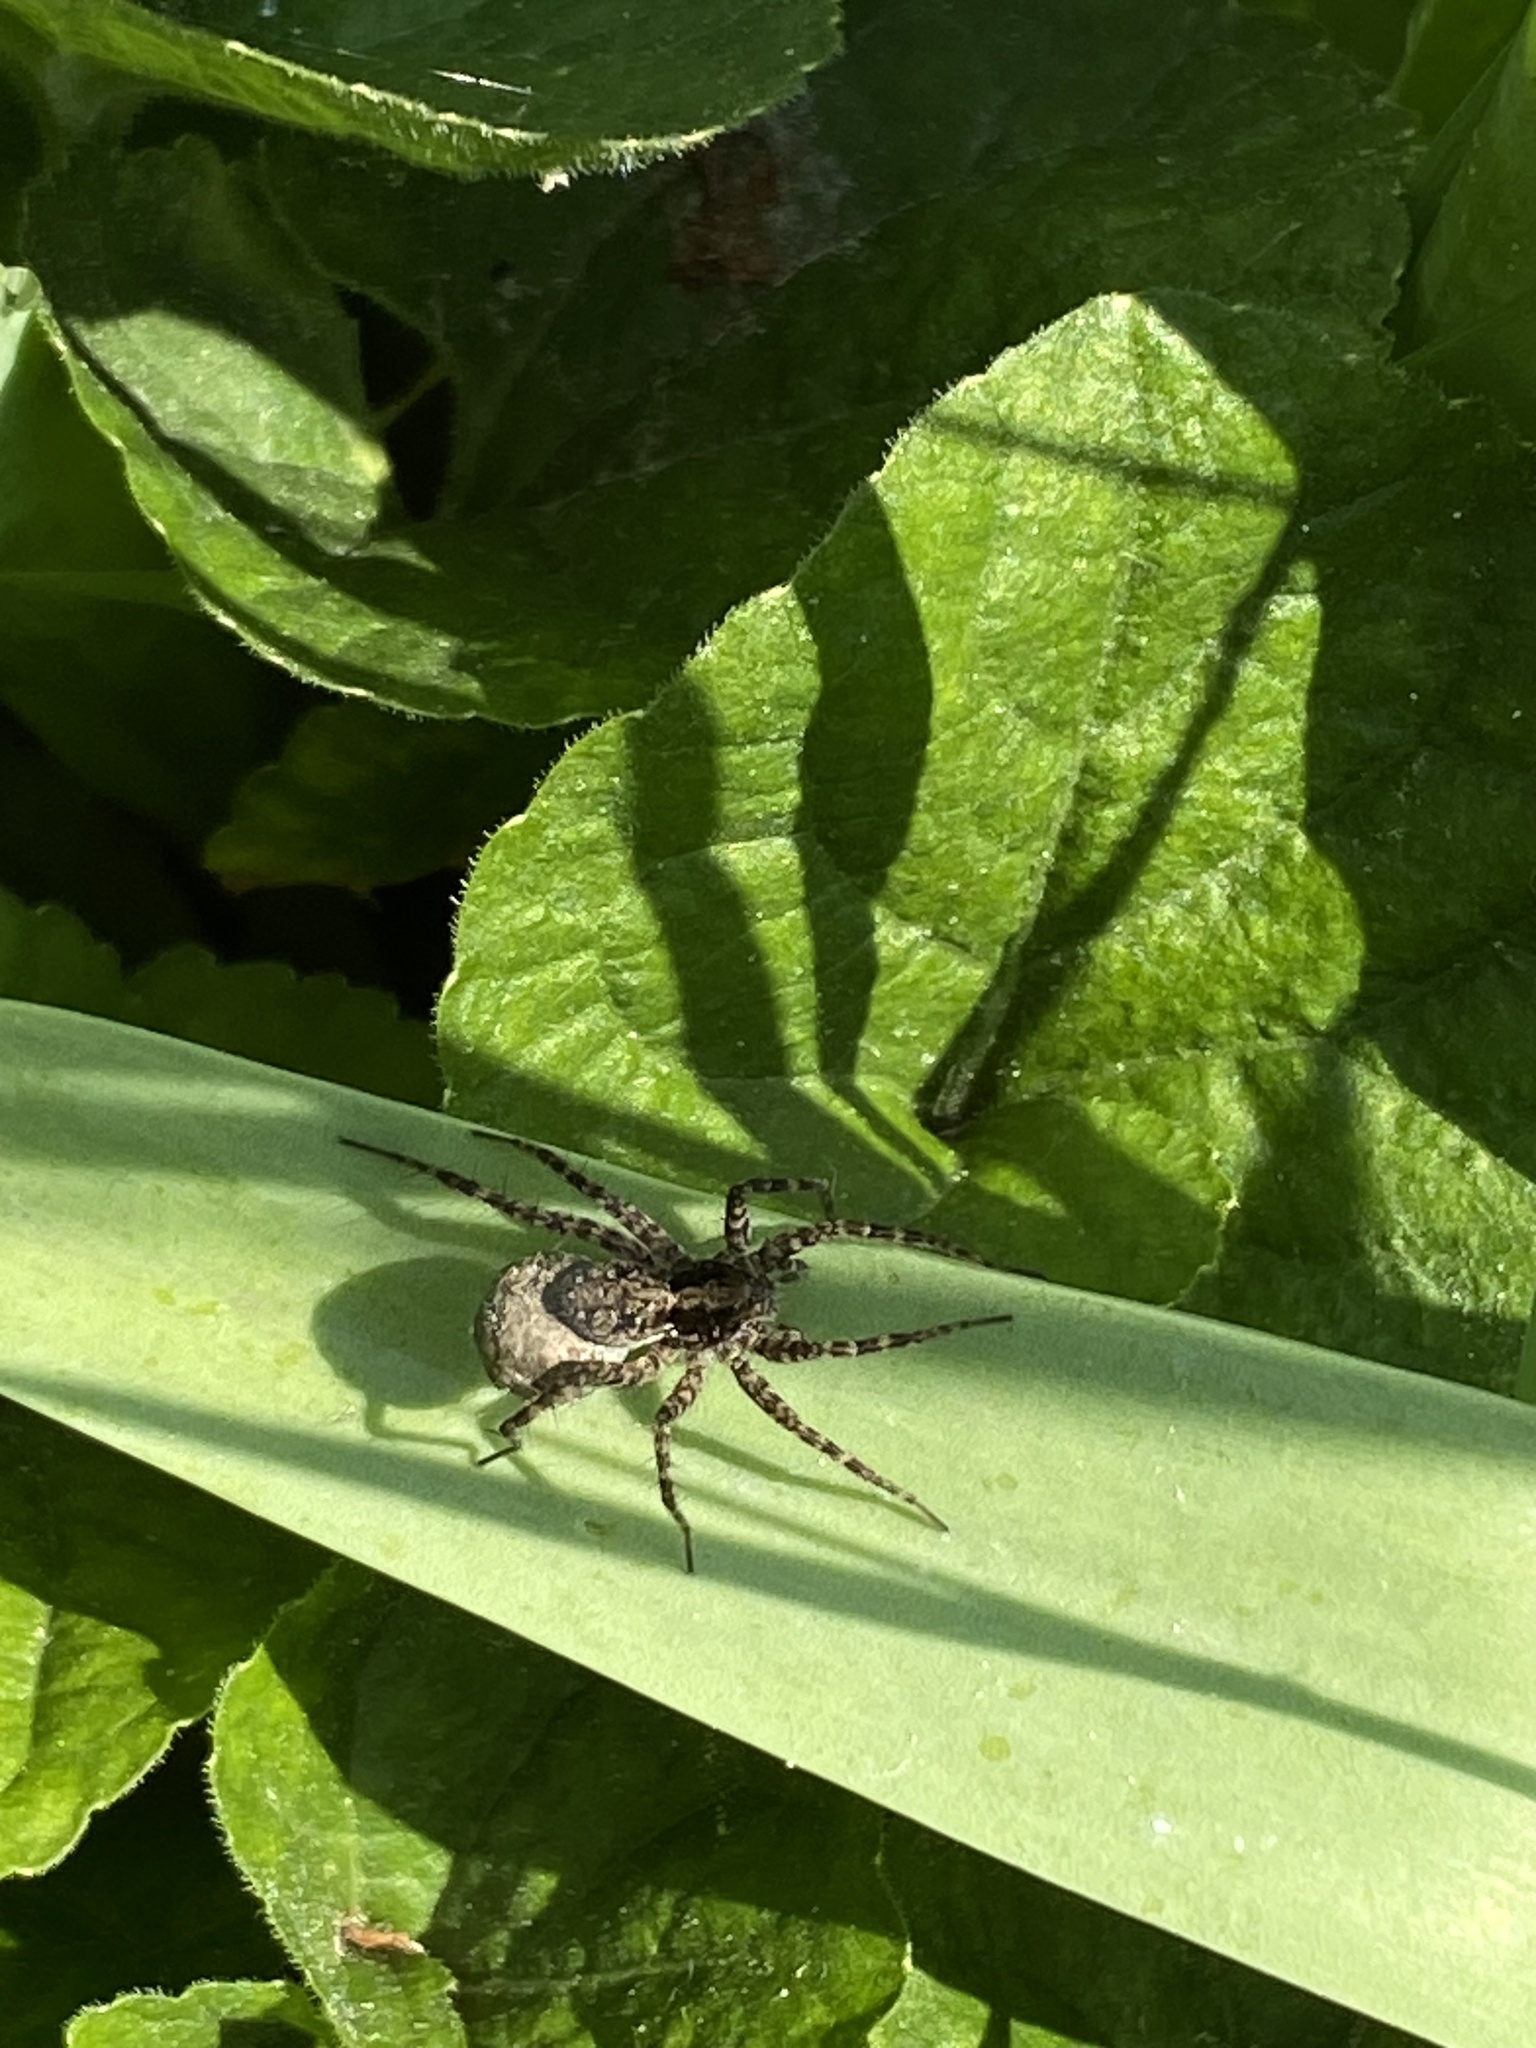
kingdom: Animalia
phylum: Arthropoda
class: Arachnida
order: Araneae
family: Lycosidae
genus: Pardosa
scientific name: Pardosa
